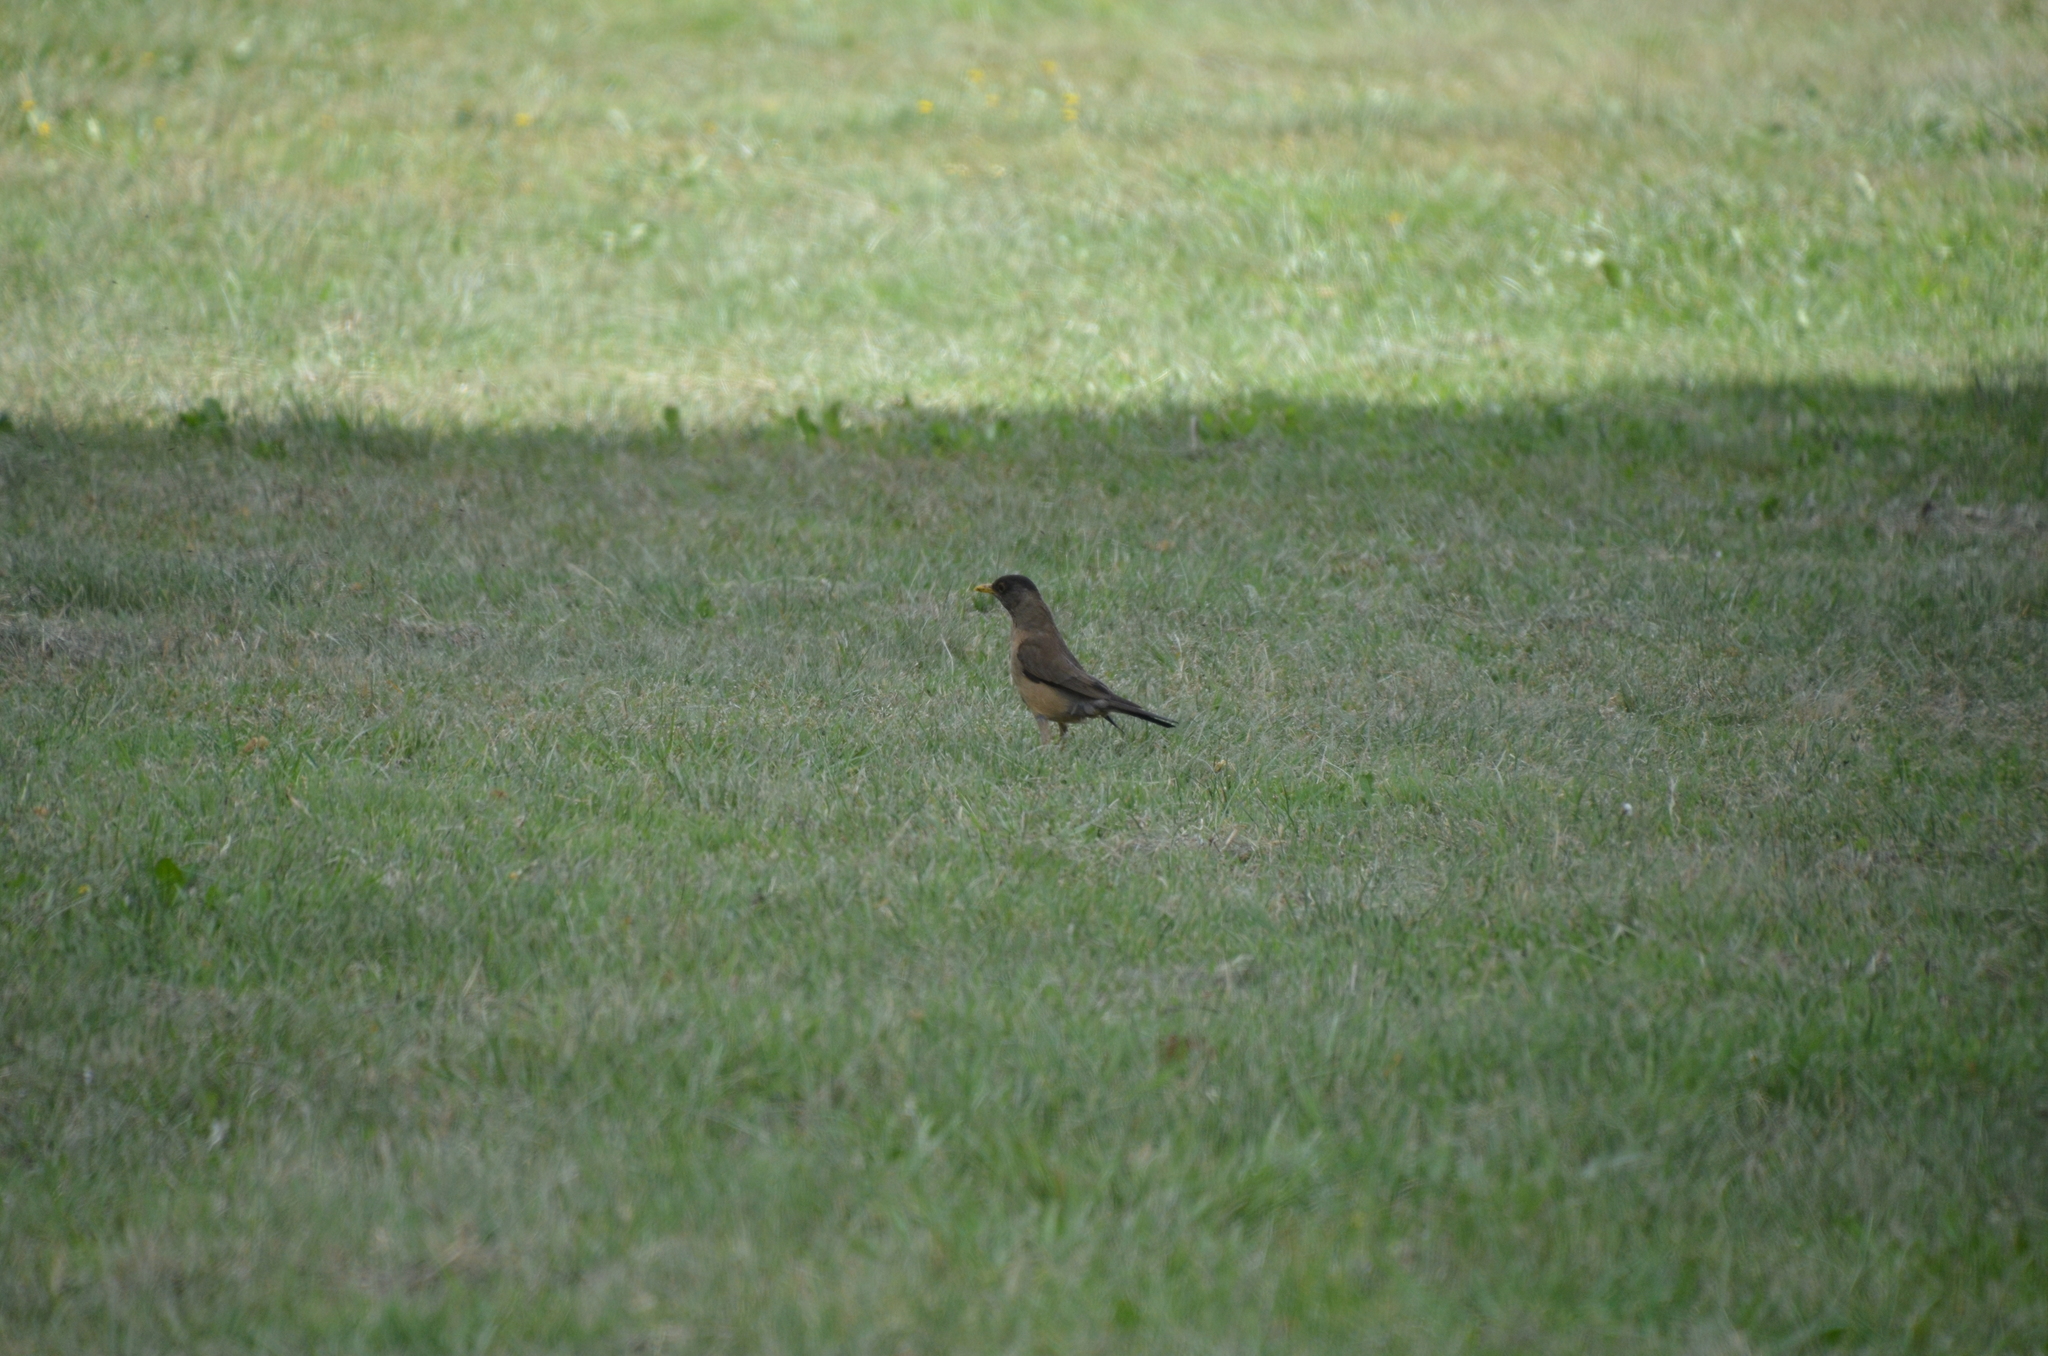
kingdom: Animalia
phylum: Chordata
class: Aves
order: Passeriformes
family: Turdidae
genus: Turdus
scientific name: Turdus falcklandii
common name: Austral thrush
